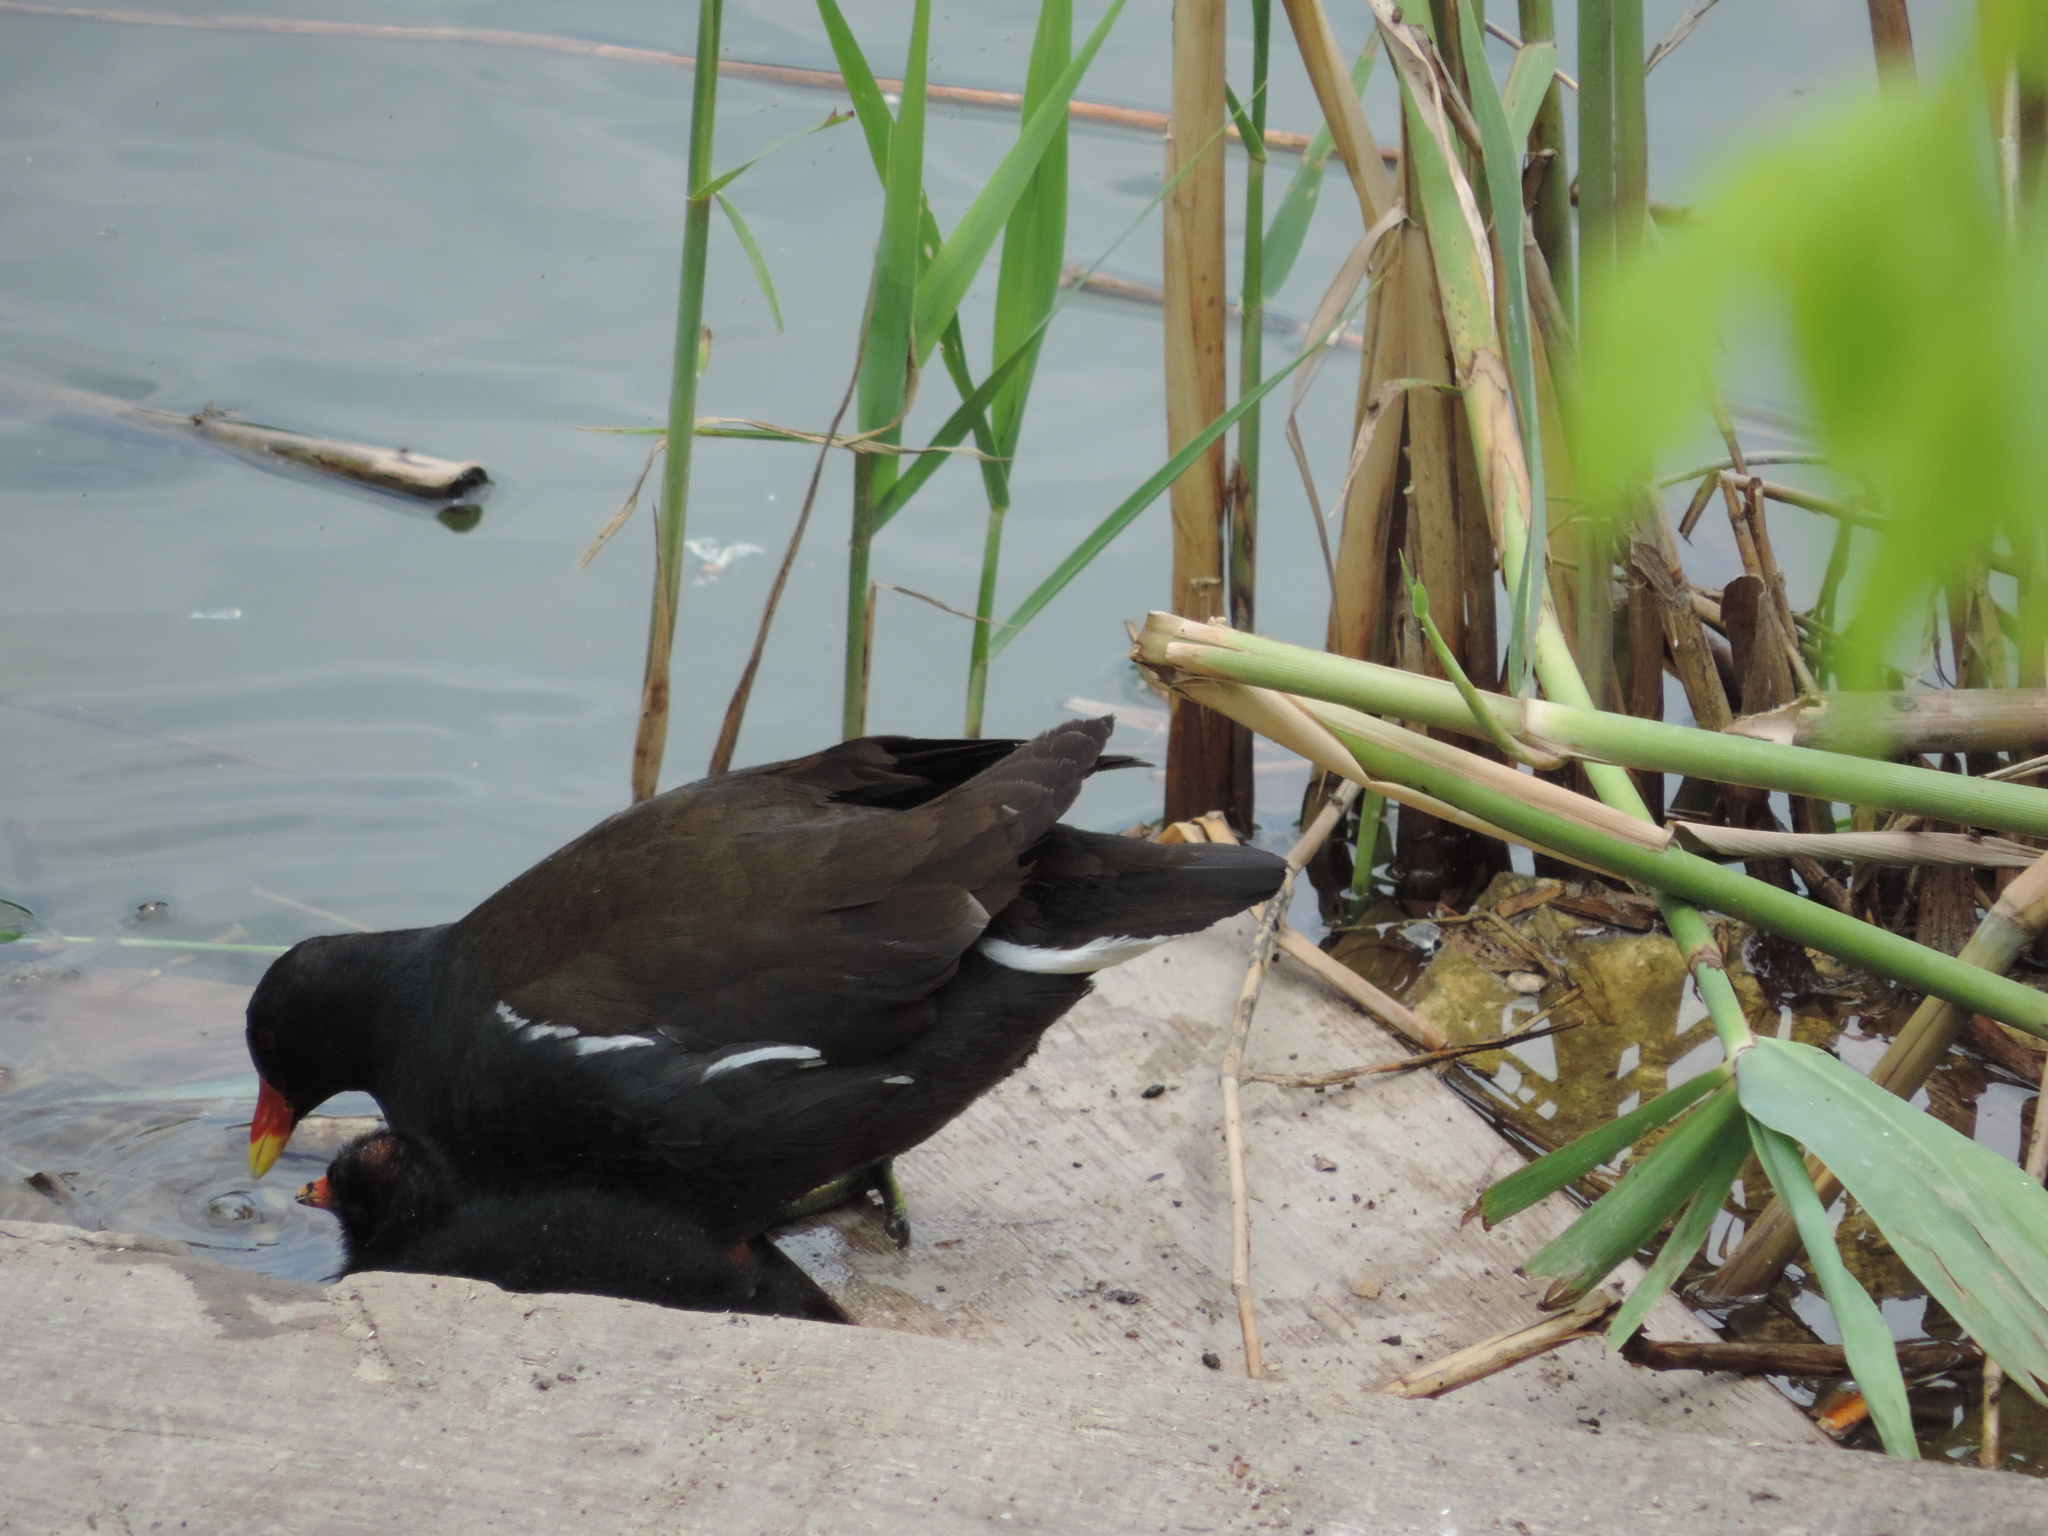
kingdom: Animalia
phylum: Chordata
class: Aves
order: Gruiformes
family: Rallidae
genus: Gallinula
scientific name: Gallinula chloropus
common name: Common moorhen
